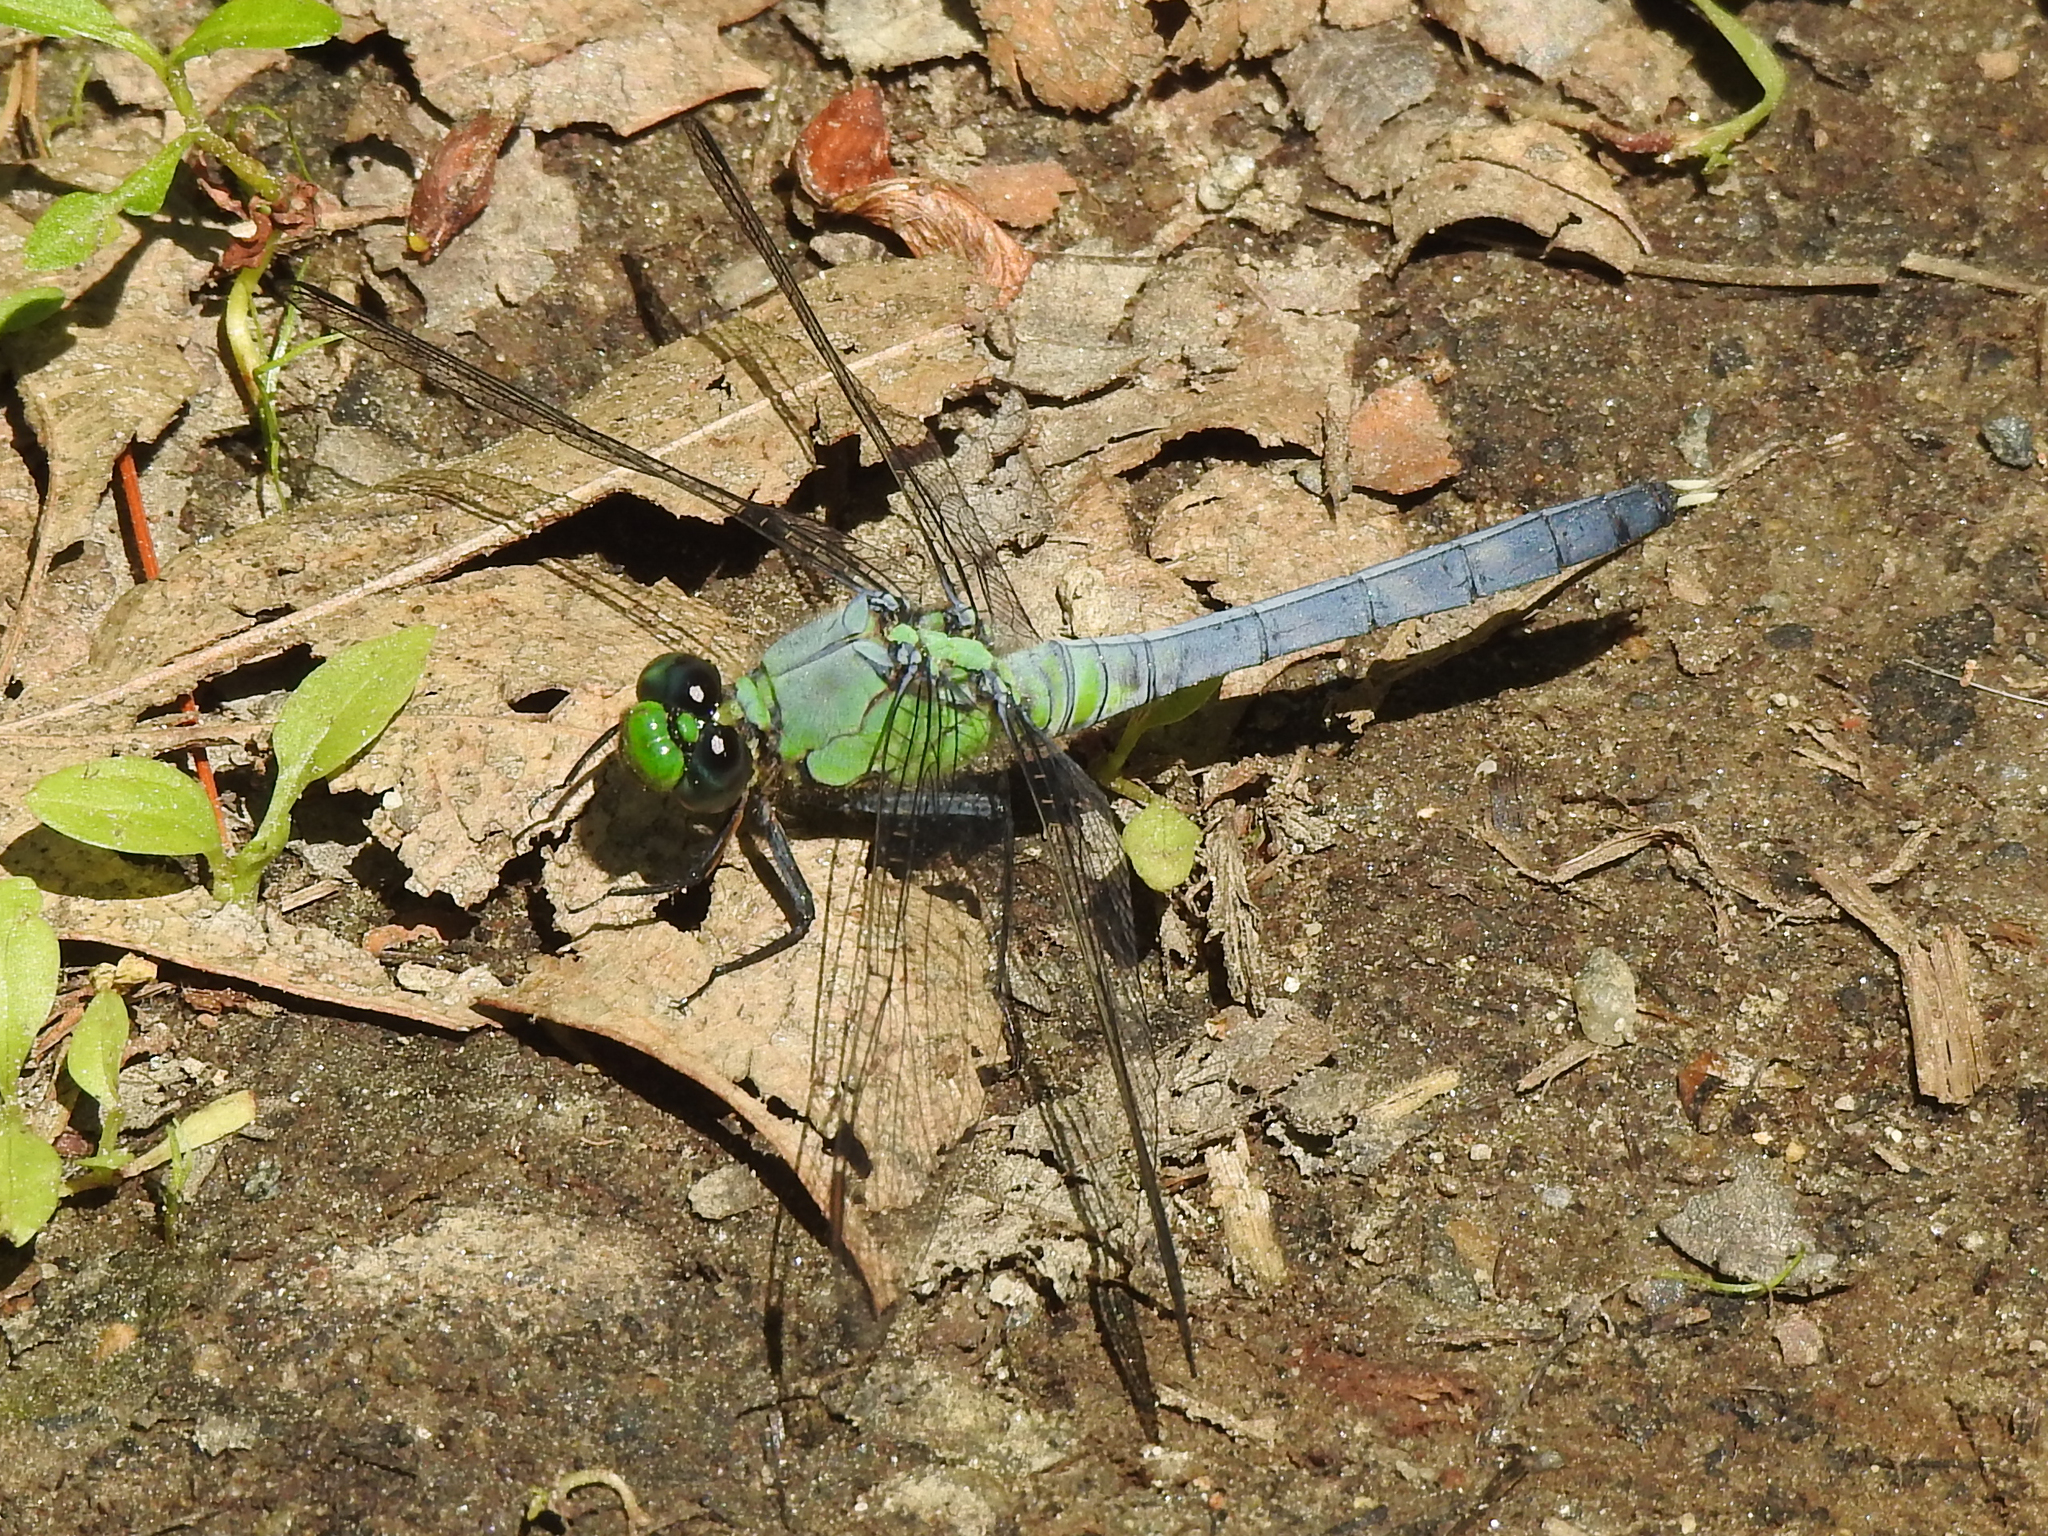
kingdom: Animalia
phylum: Arthropoda
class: Insecta
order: Odonata
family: Libellulidae
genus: Erythemis
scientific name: Erythemis simplicicollis
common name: Eastern pondhawk
